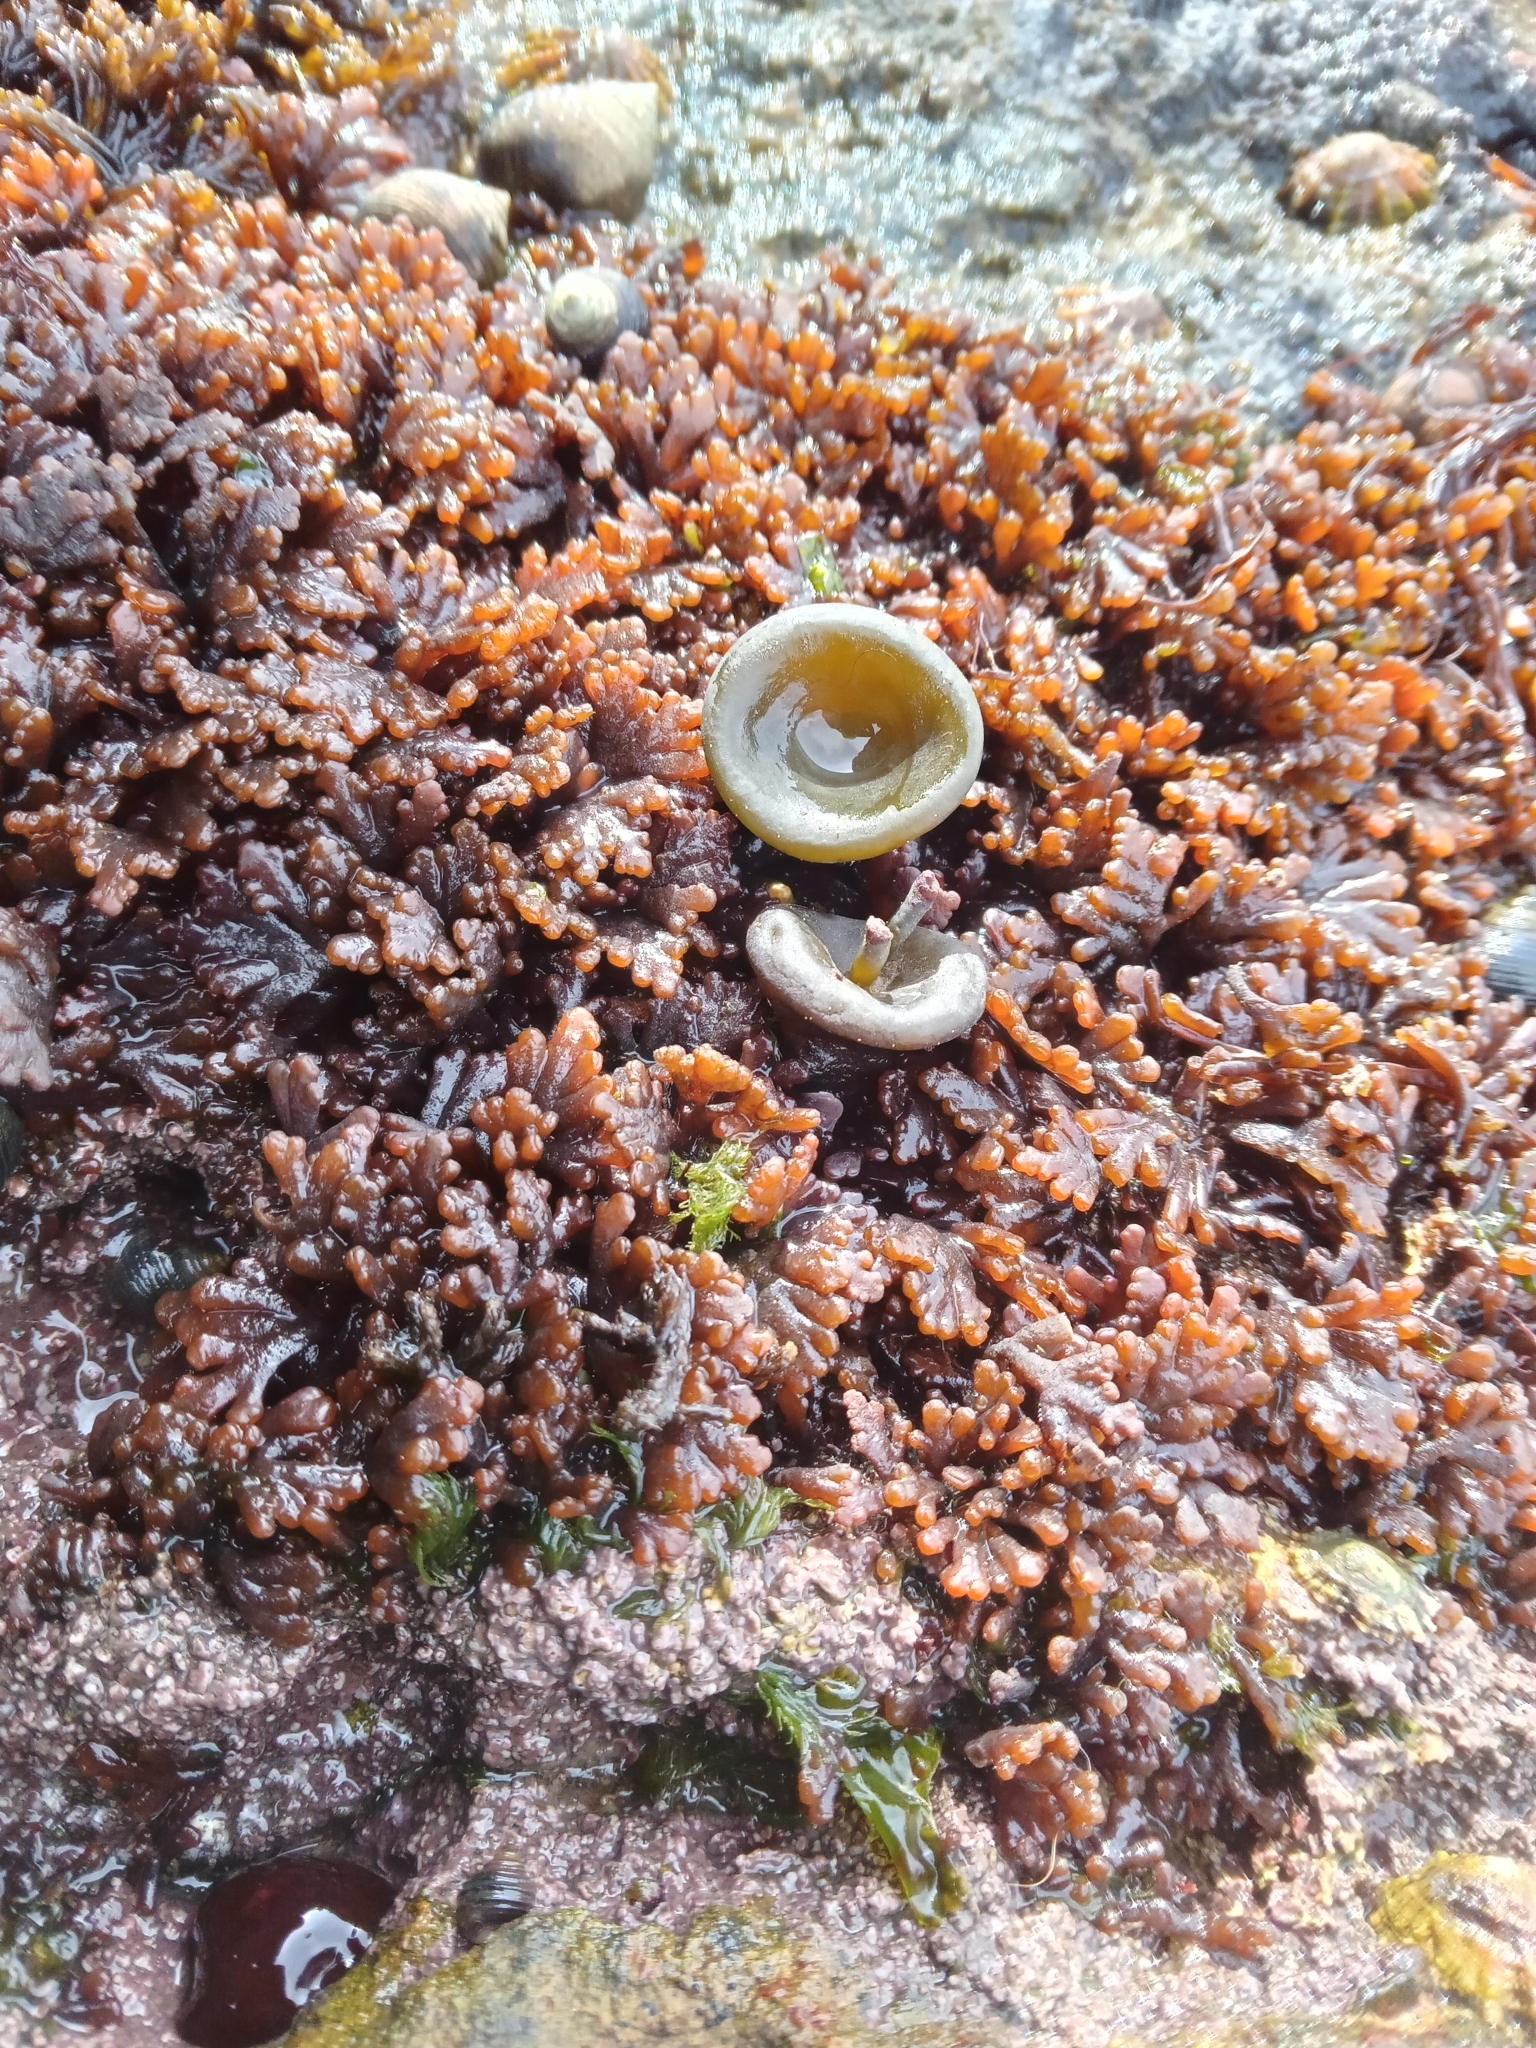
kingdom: Chromista
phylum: Ochrophyta
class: Phaeophyceae
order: Fucales
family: Himanthaliaceae
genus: Himanthalia
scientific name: Himanthalia elongata
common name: Sea-thong
